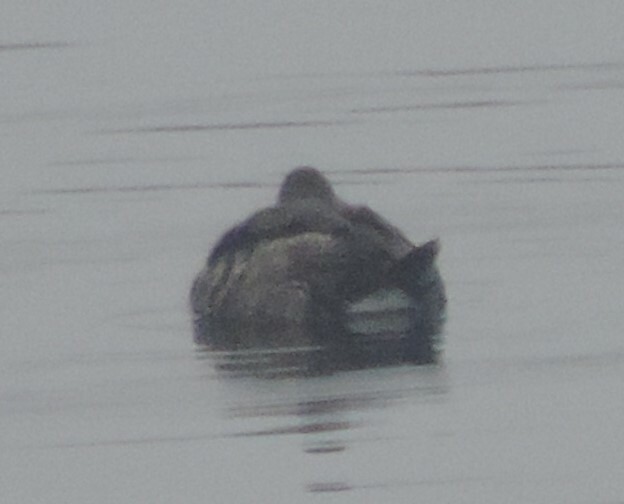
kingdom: Animalia
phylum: Chordata
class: Aves
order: Anseriformes
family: Anatidae
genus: Oxyura
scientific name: Oxyura jamaicensis
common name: Ruddy duck
